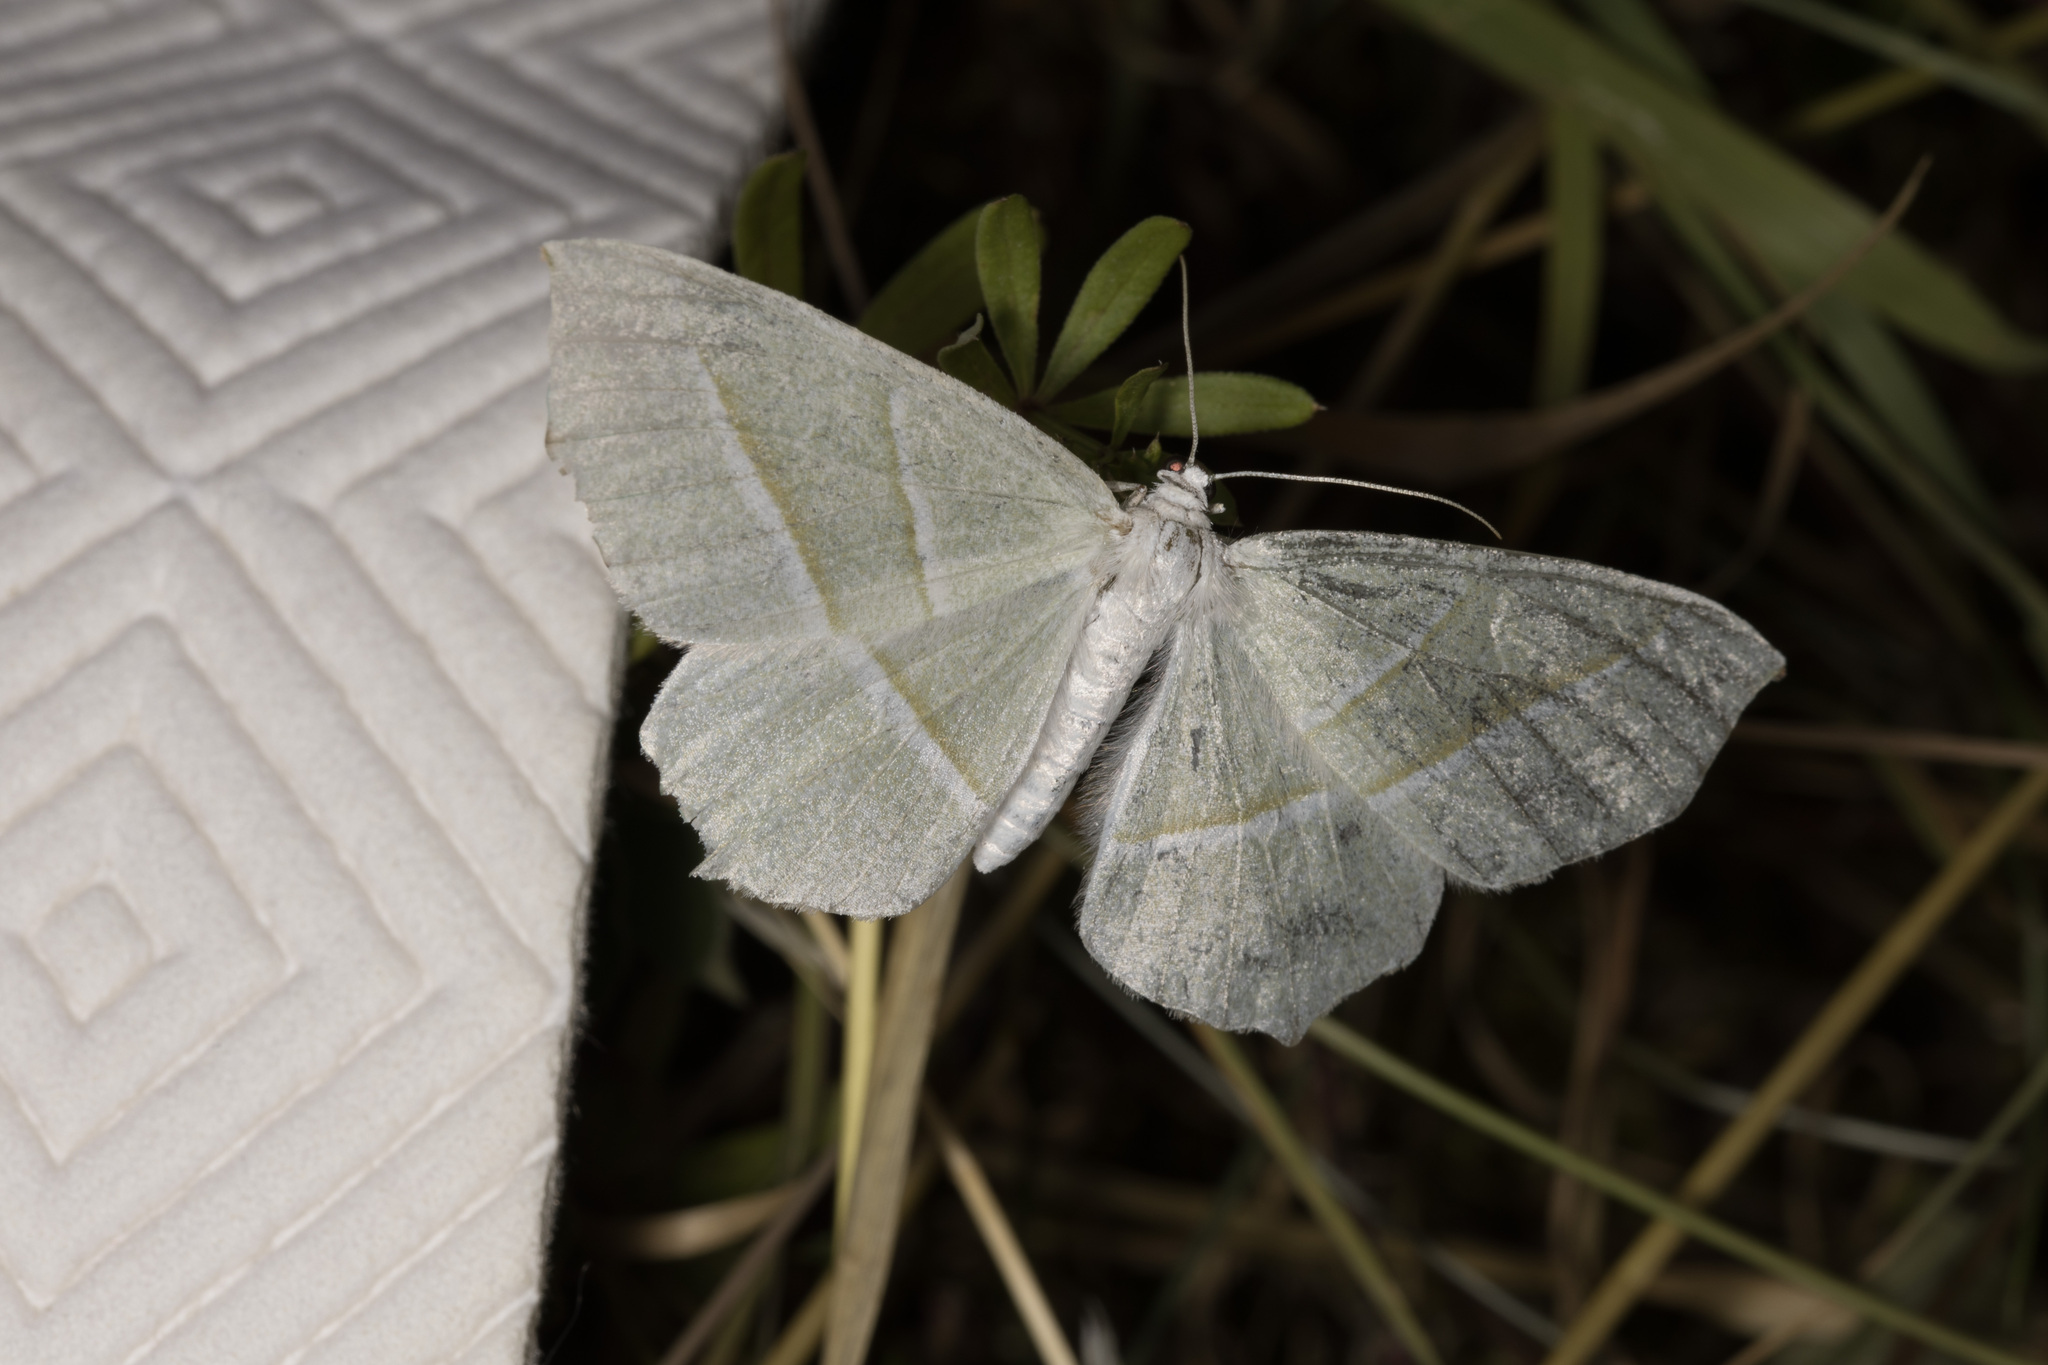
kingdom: Animalia
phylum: Arthropoda
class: Insecta
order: Lepidoptera
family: Geometridae
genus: Campaea
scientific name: Campaea margaritaria
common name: Light emerald
